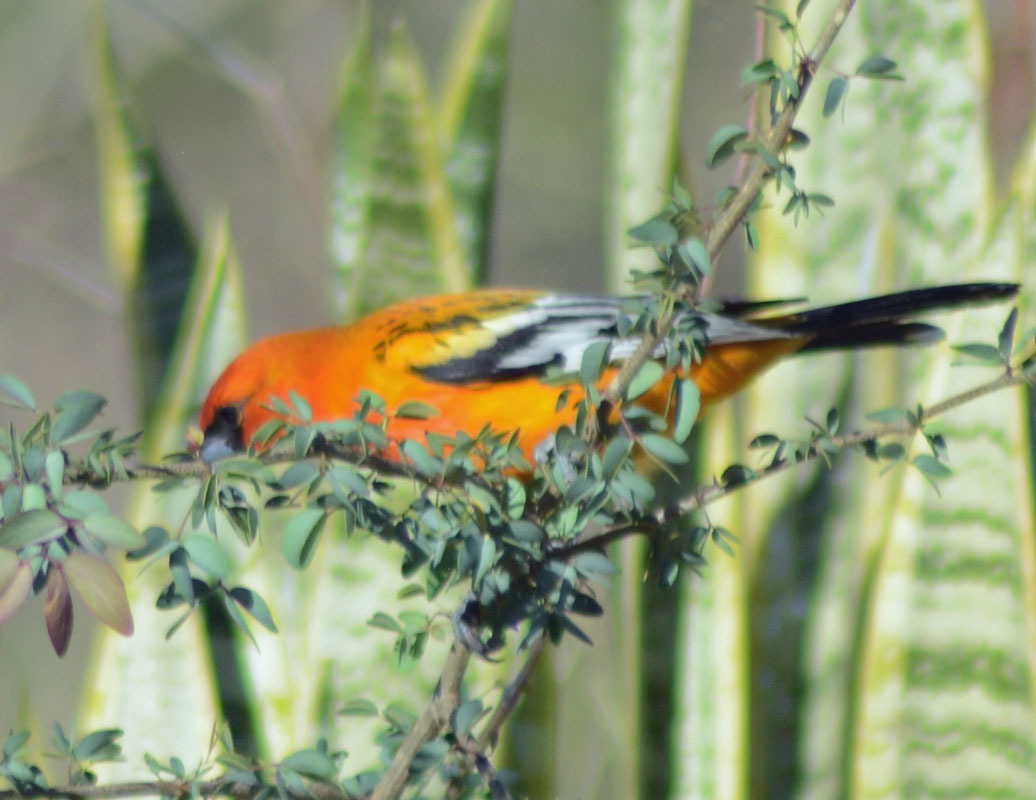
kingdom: Animalia
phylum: Chordata
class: Aves
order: Passeriformes
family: Icteridae
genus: Icterus
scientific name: Icterus pustulatus
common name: Streak-backed oriole
